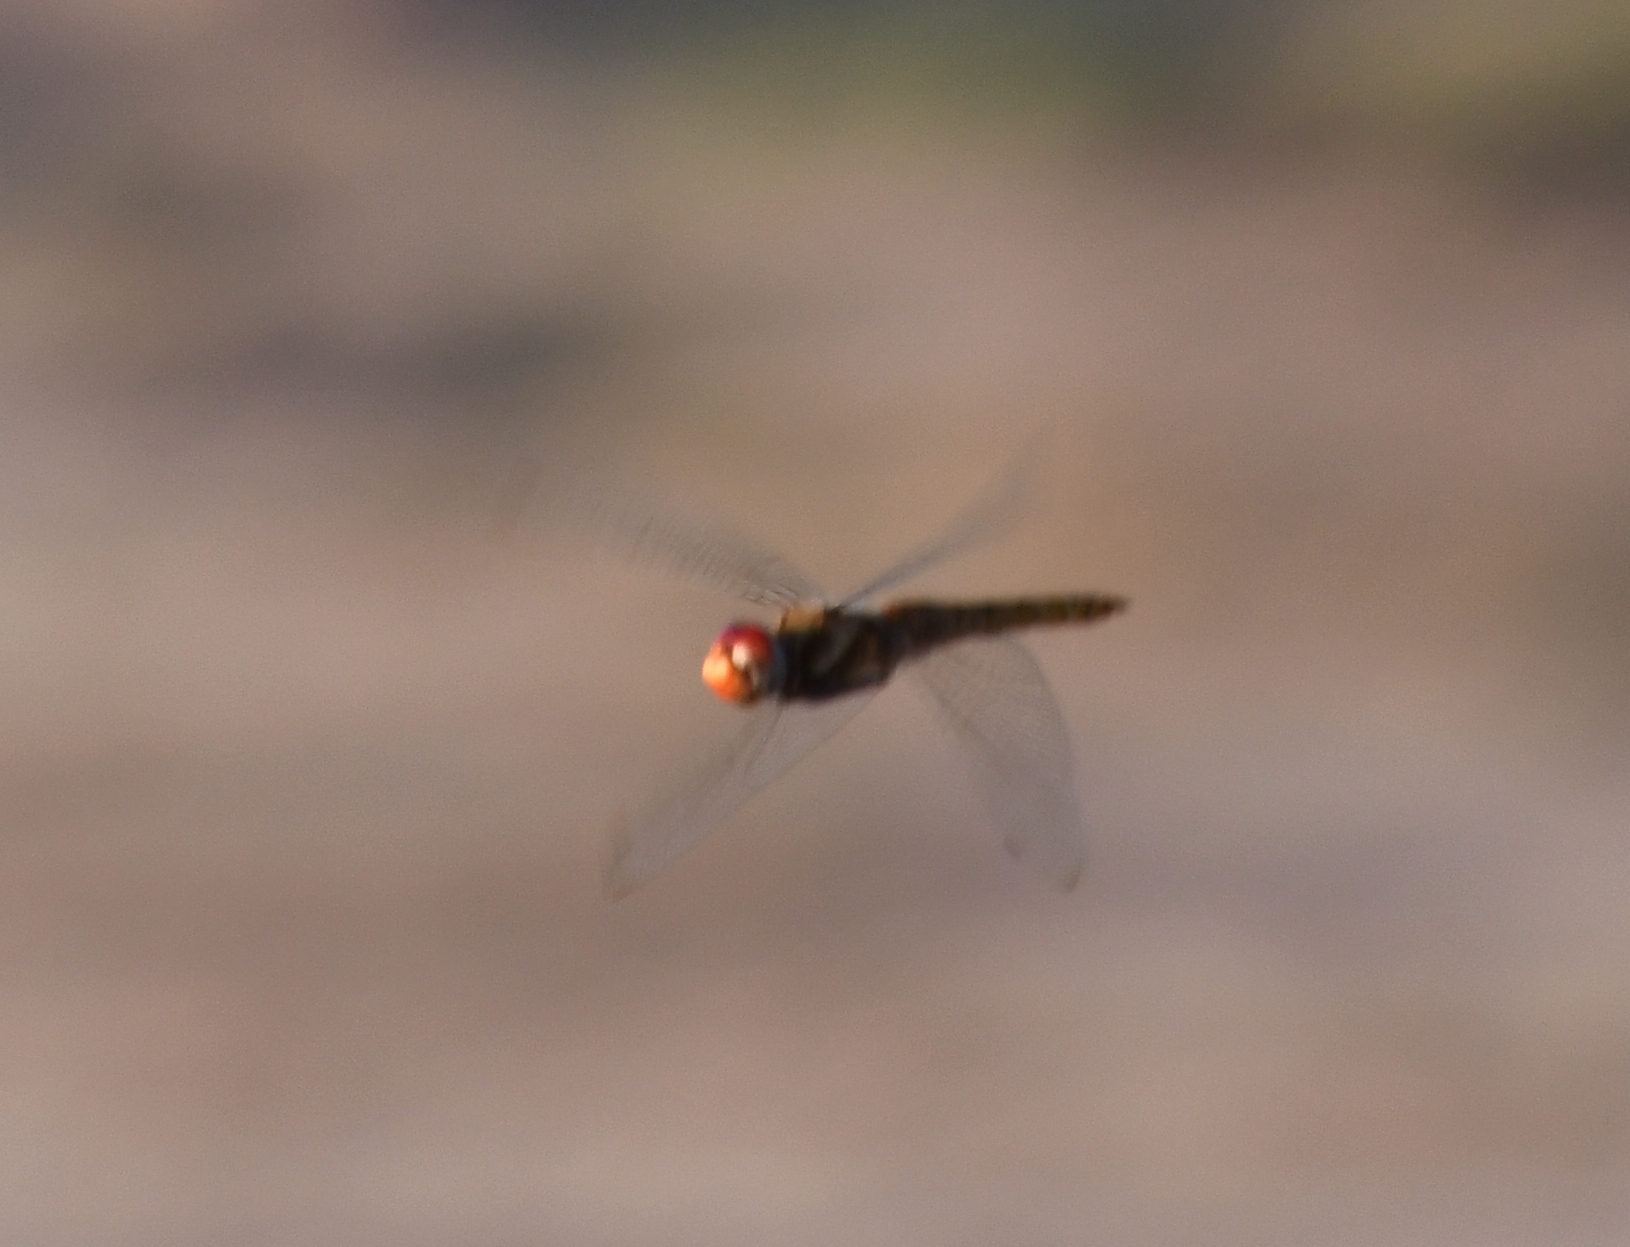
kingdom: Animalia
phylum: Arthropoda
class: Insecta
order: Odonata
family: Libellulidae
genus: Pantala
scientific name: Pantala hymenaea
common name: Spot-winged glider
